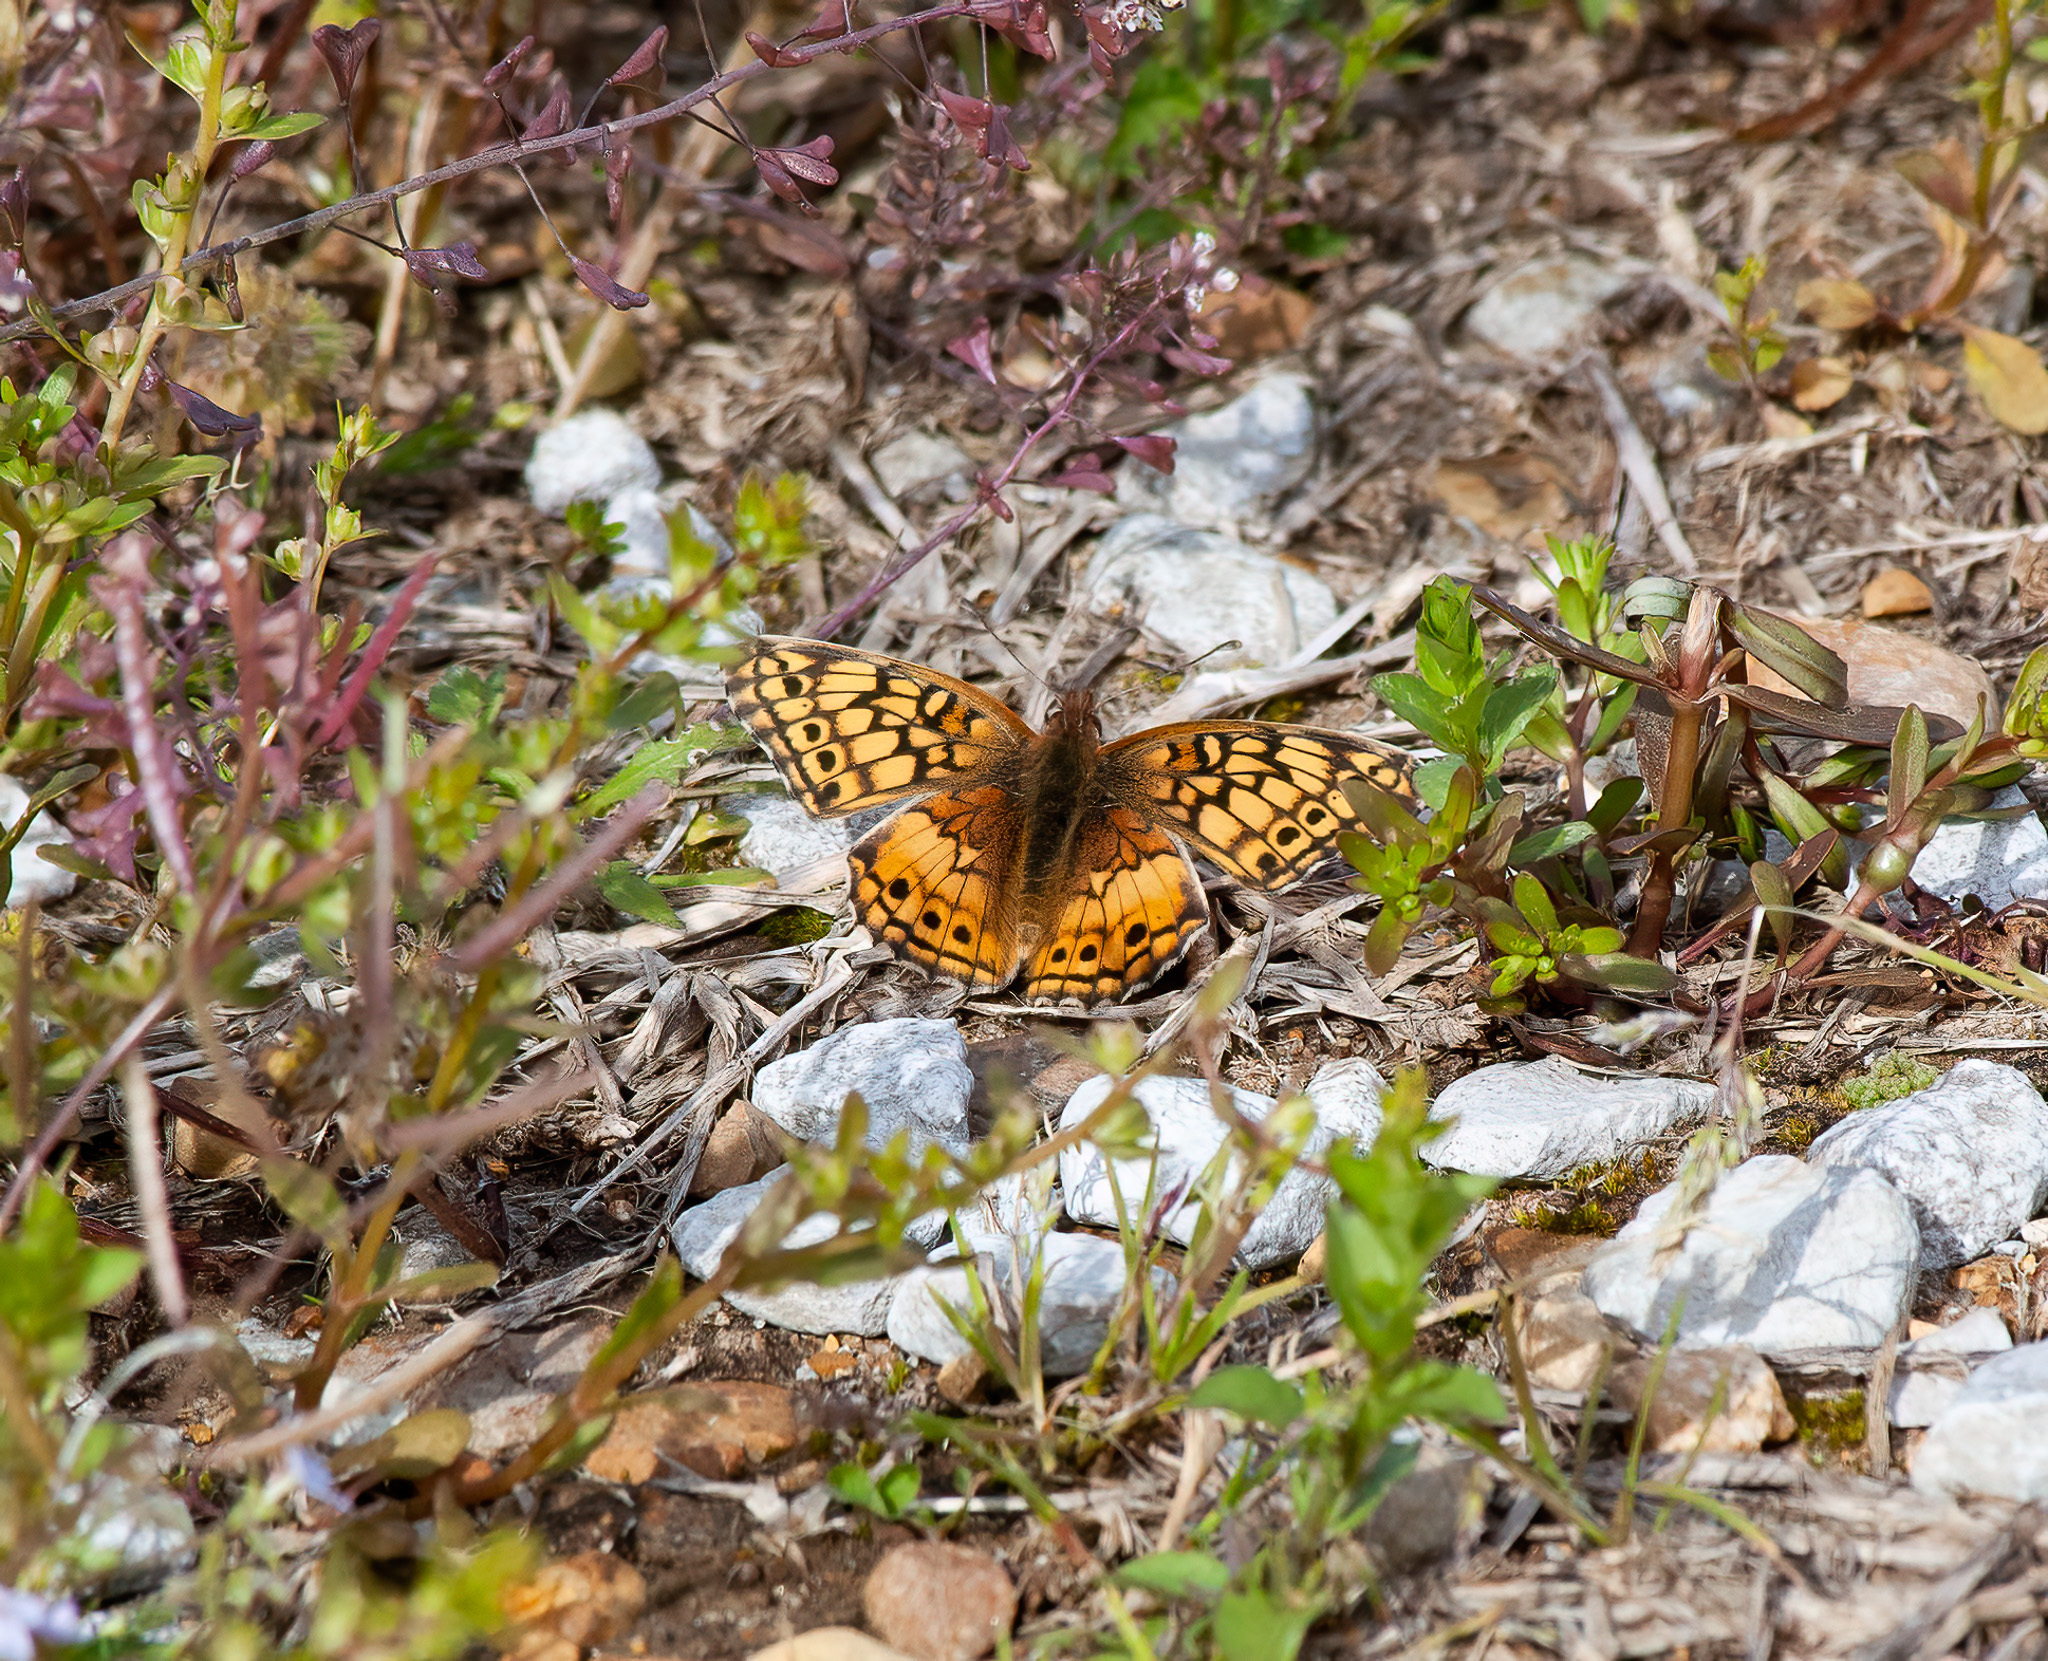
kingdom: Animalia
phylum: Arthropoda
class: Insecta
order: Lepidoptera
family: Nymphalidae
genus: Euptoieta
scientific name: Euptoieta claudia
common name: Variegated fritillary
